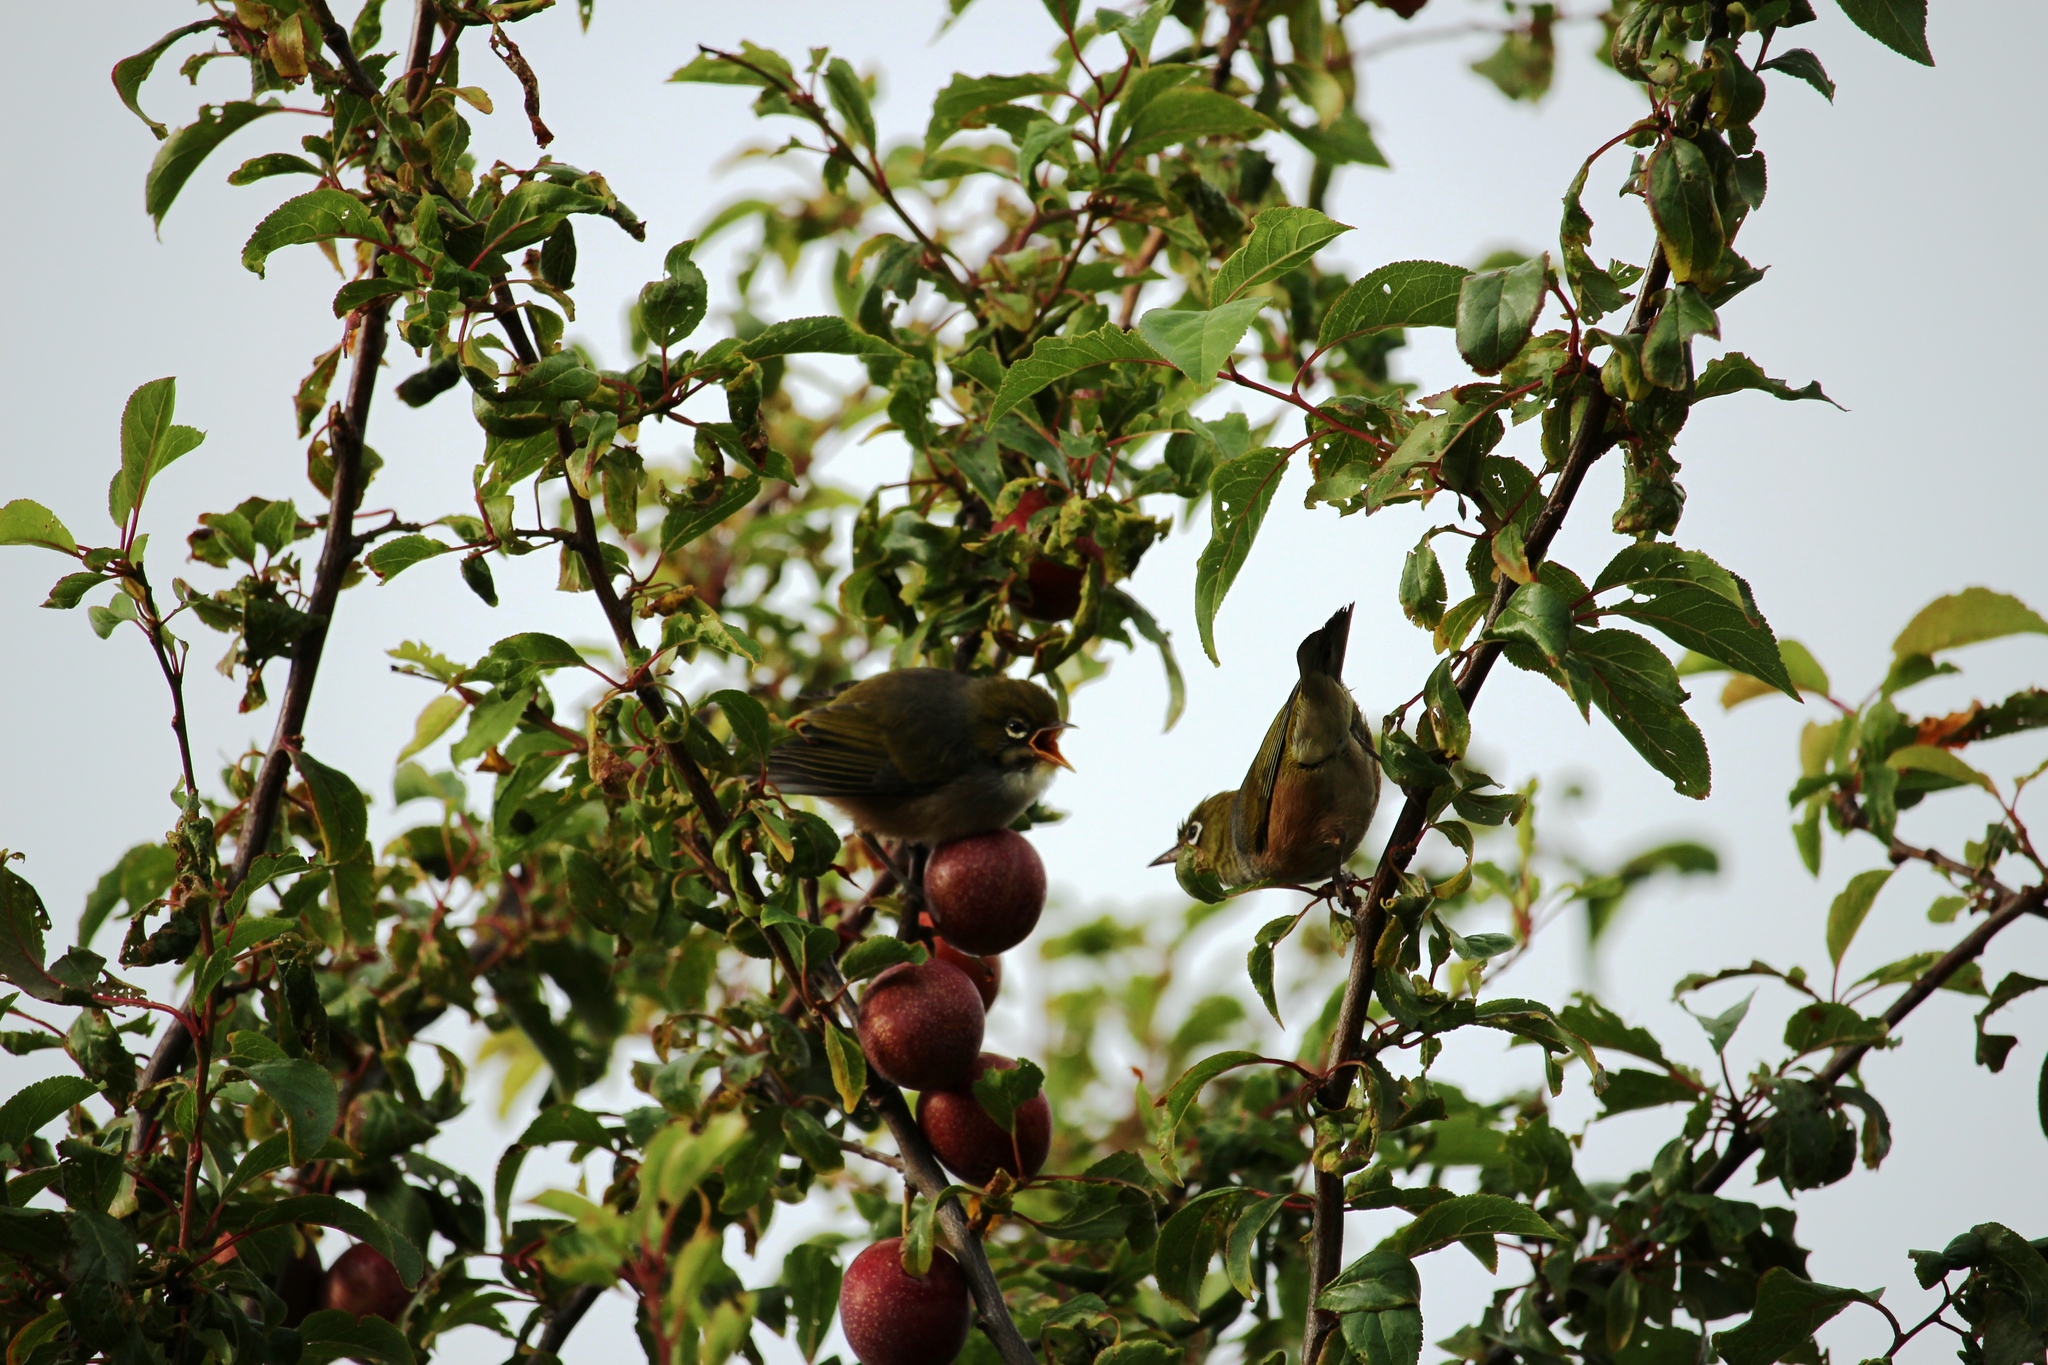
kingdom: Animalia
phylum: Chordata
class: Aves
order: Passeriformes
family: Zosteropidae
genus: Zosterops
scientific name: Zosterops lateralis
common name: Silvereye
